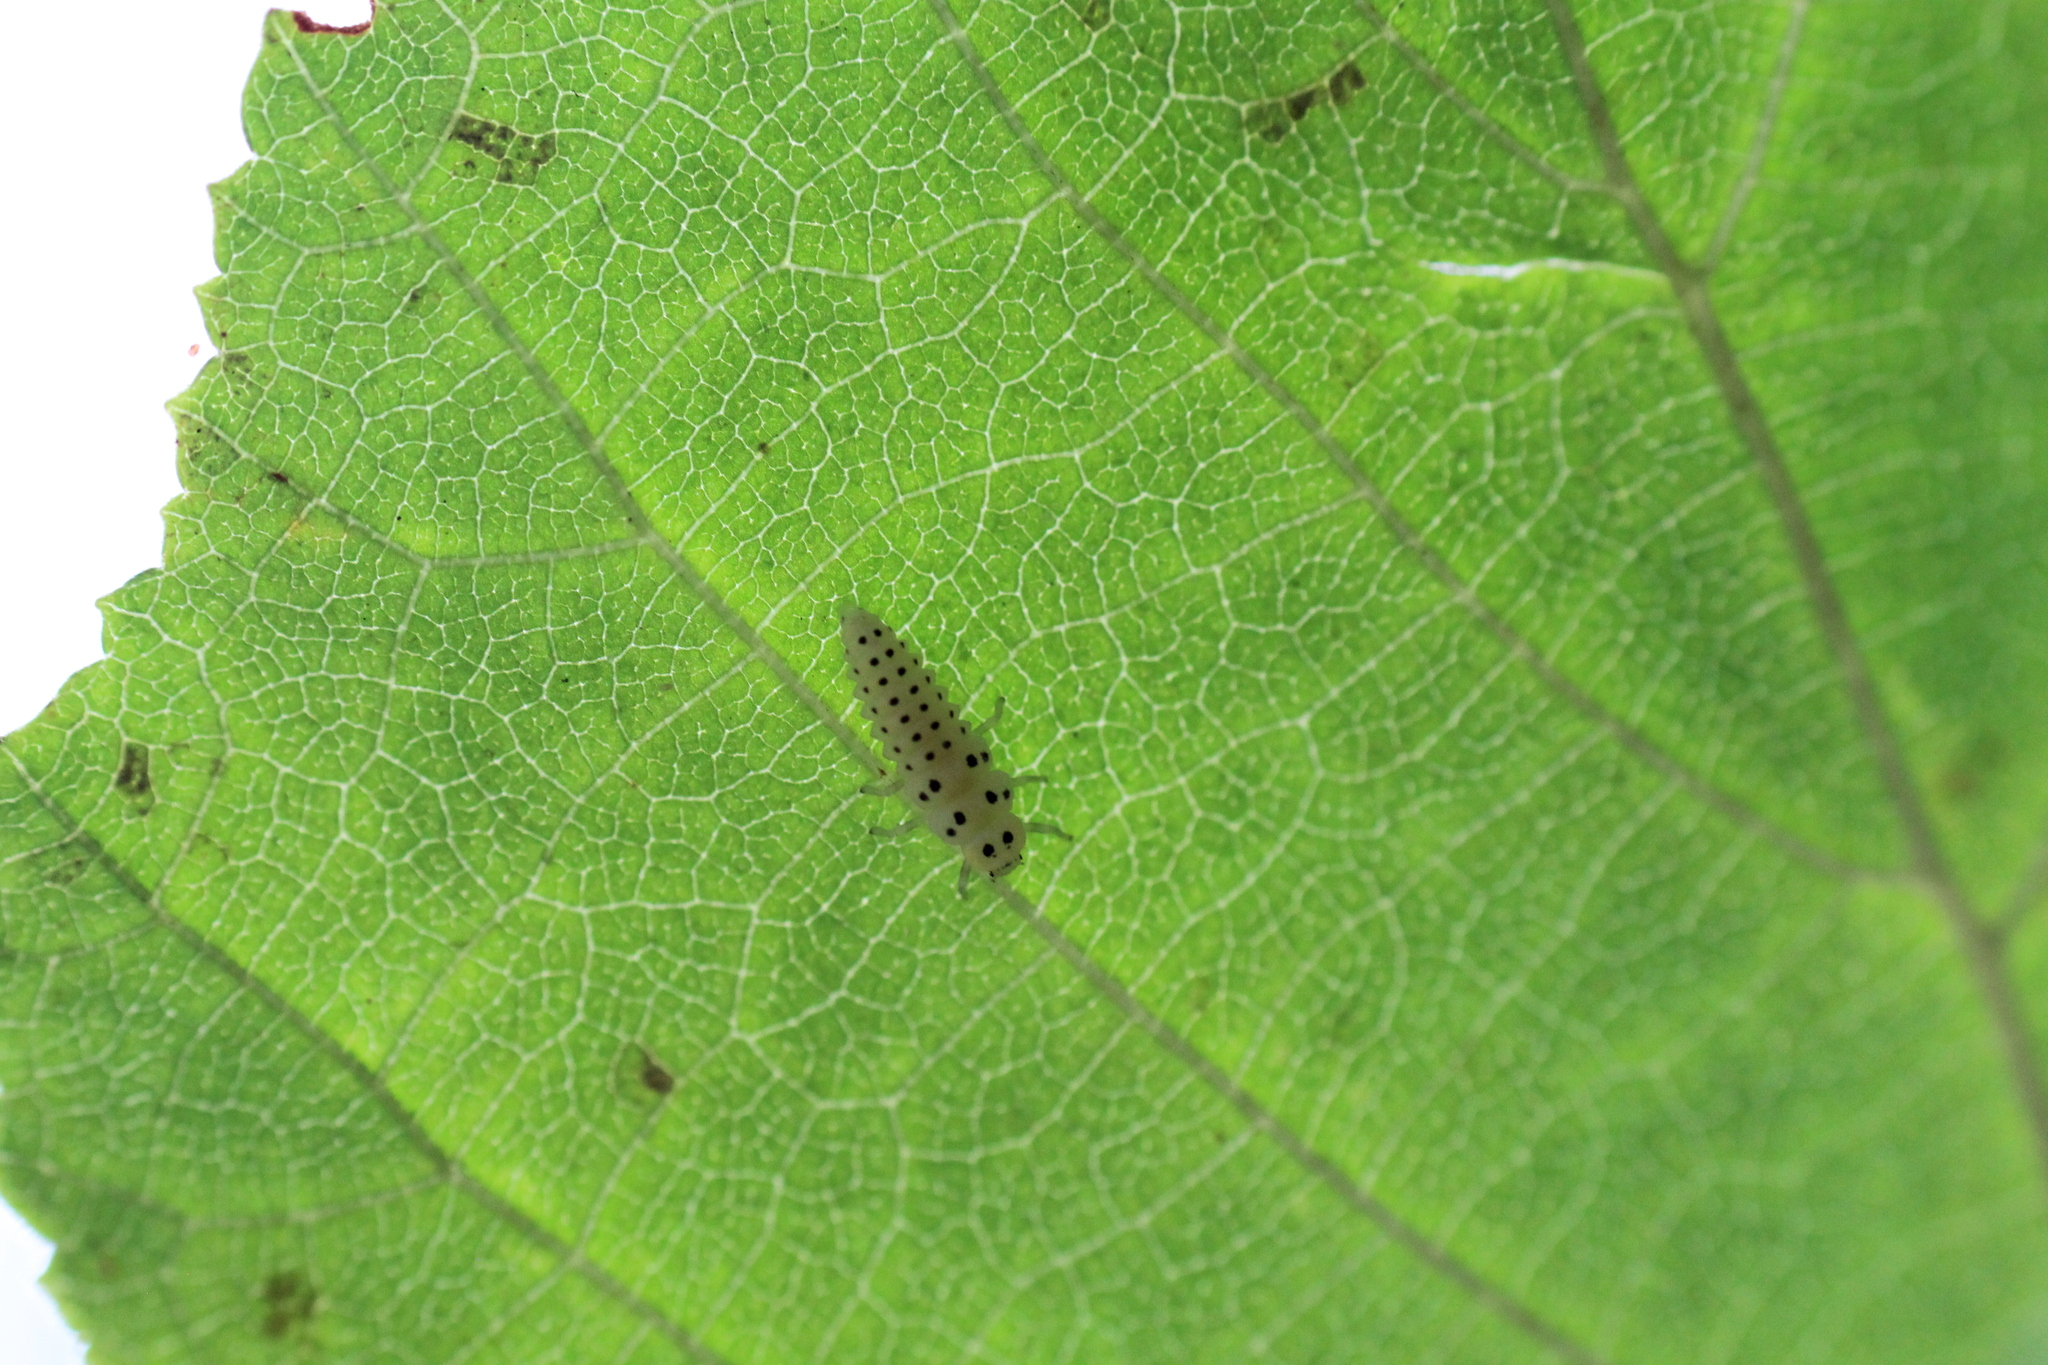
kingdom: Animalia
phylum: Arthropoda
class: Insecta
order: Coleoptera
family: Coccinellidae
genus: Vibidia
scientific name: Vibidia duodecimguttata
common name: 12-spot ladybird
